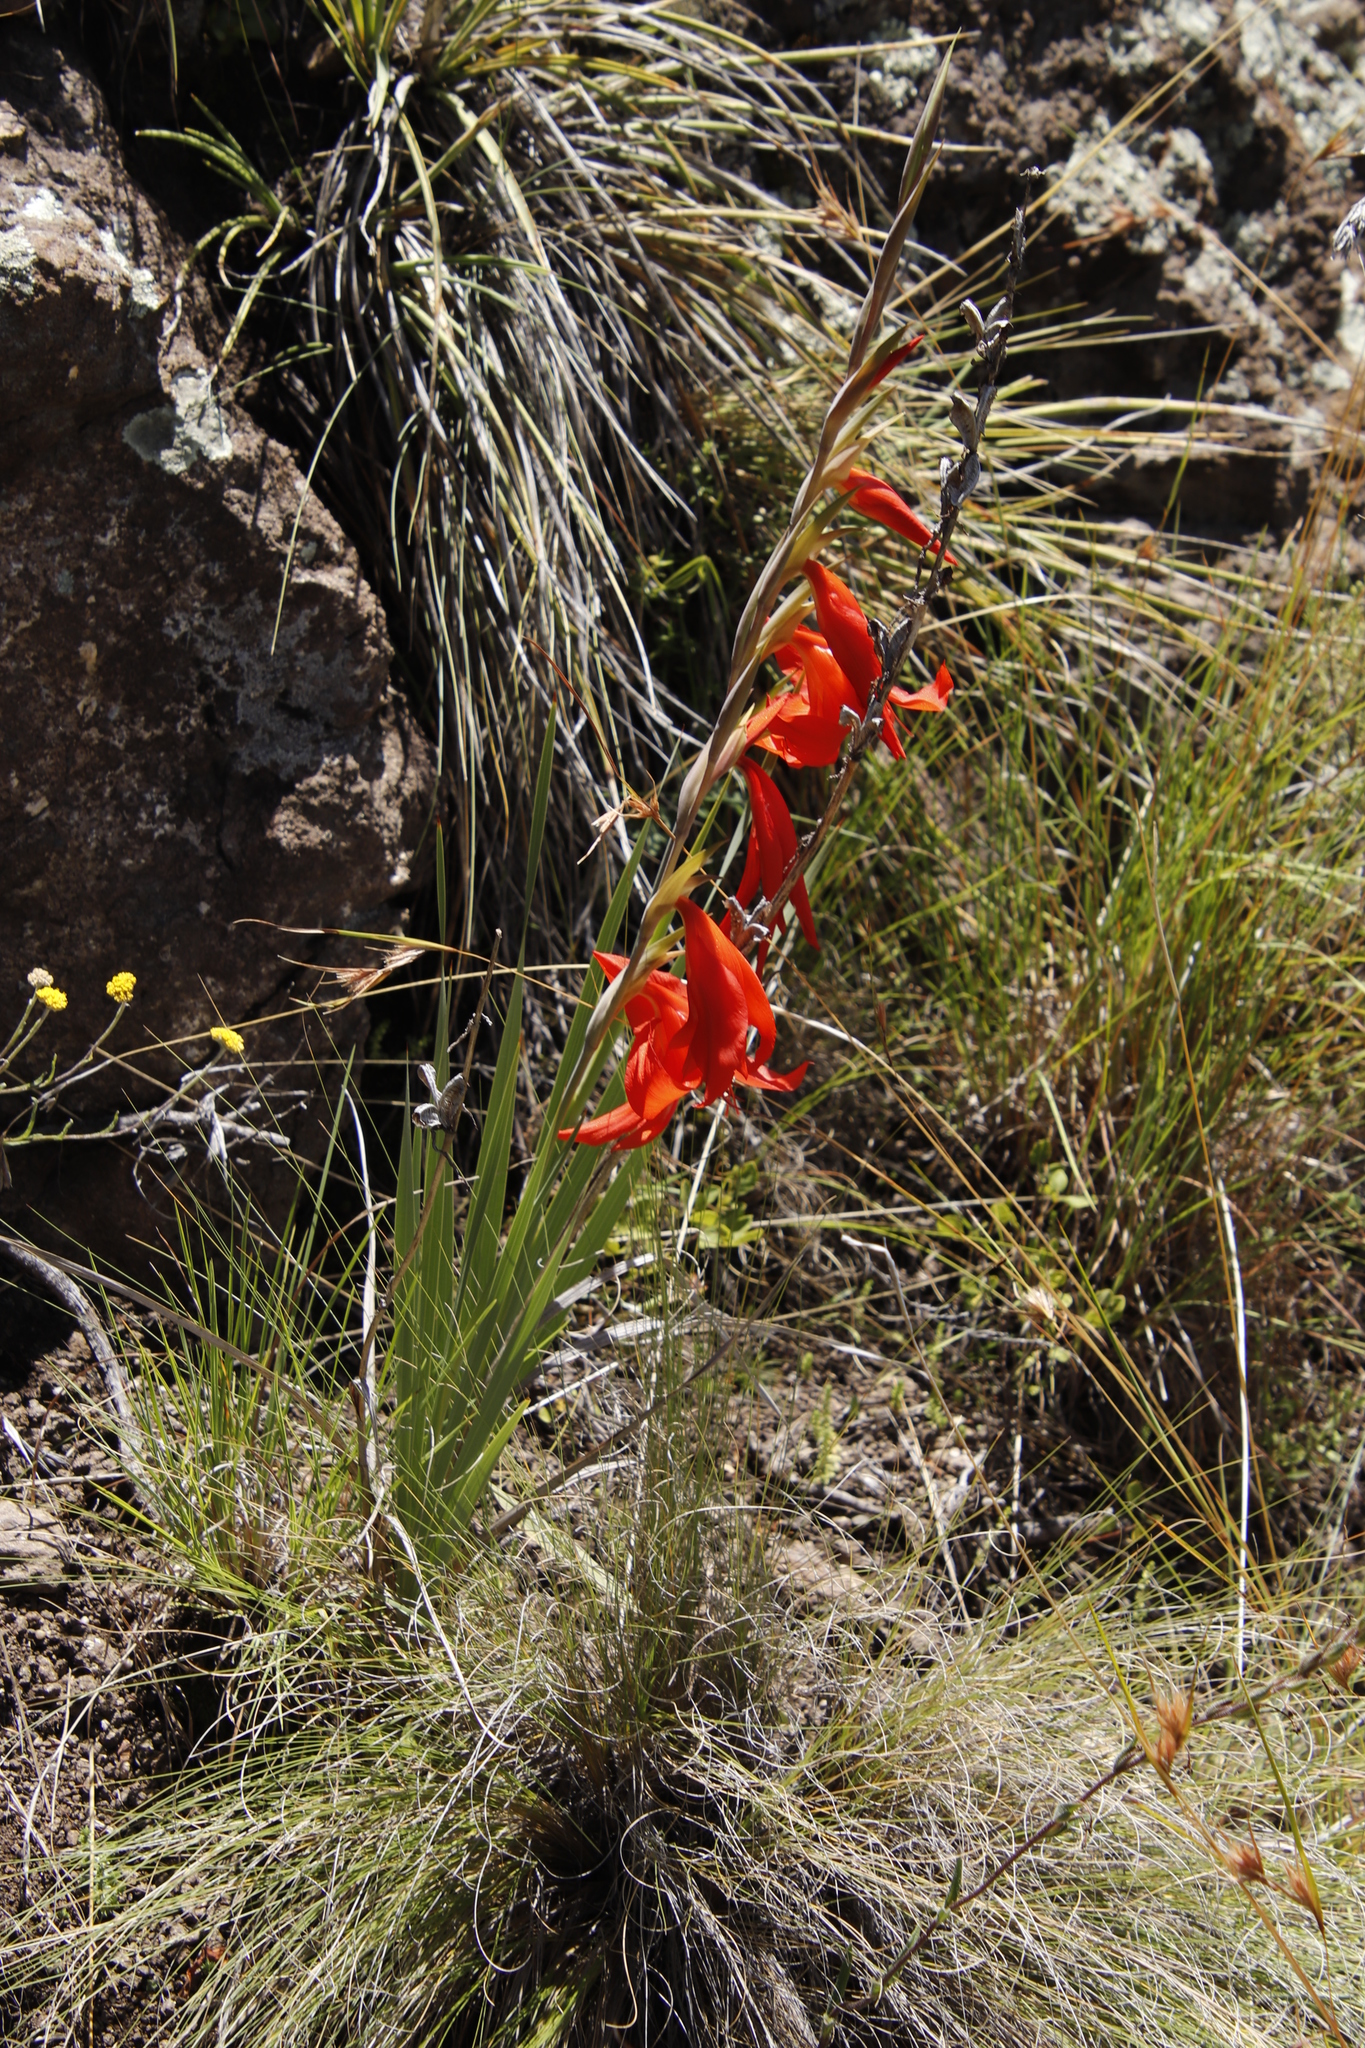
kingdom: Plantae
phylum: Tracheophyta
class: Liliopsida
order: Asparagales
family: Iridaceae
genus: Gladiolus
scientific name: Gladiolus saundersii
